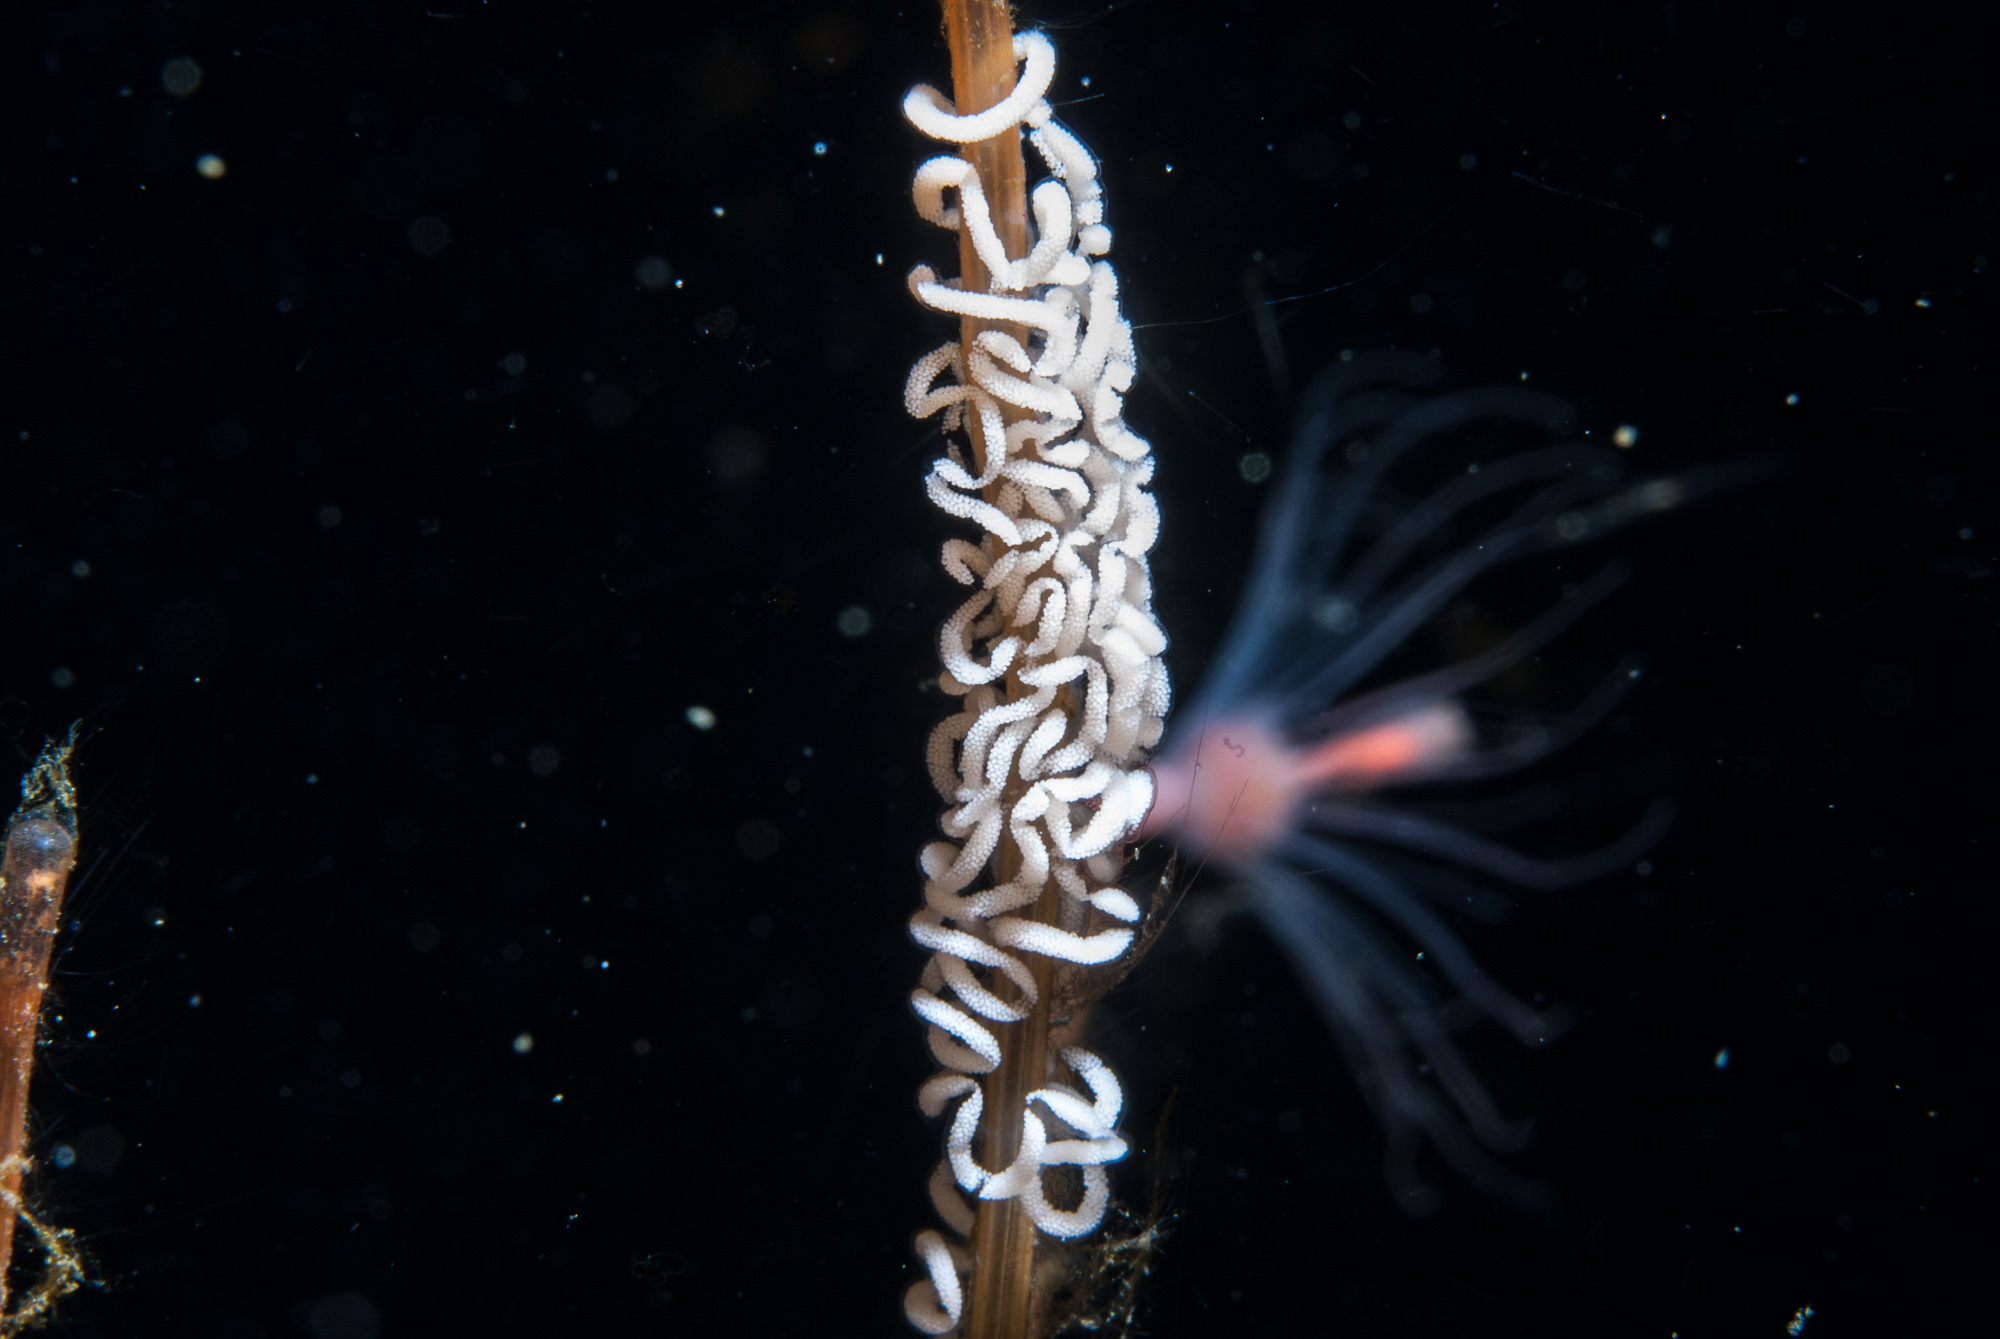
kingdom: Animalia
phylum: Mollusca
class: Gastropoda
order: Nudibranchia
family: Coryphellidae
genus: Coryphella
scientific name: Coryphella chriskaugei
